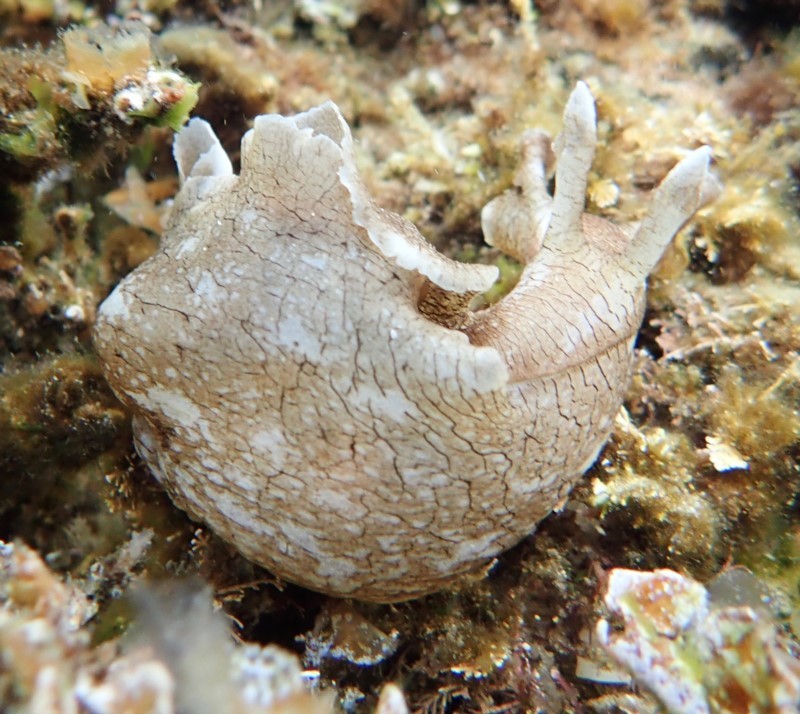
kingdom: Animalia
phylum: Mollusca
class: Gastropoda
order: Aplysiida
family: Aplysiidae
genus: Aplysia
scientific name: Aplysia sydneyensis
